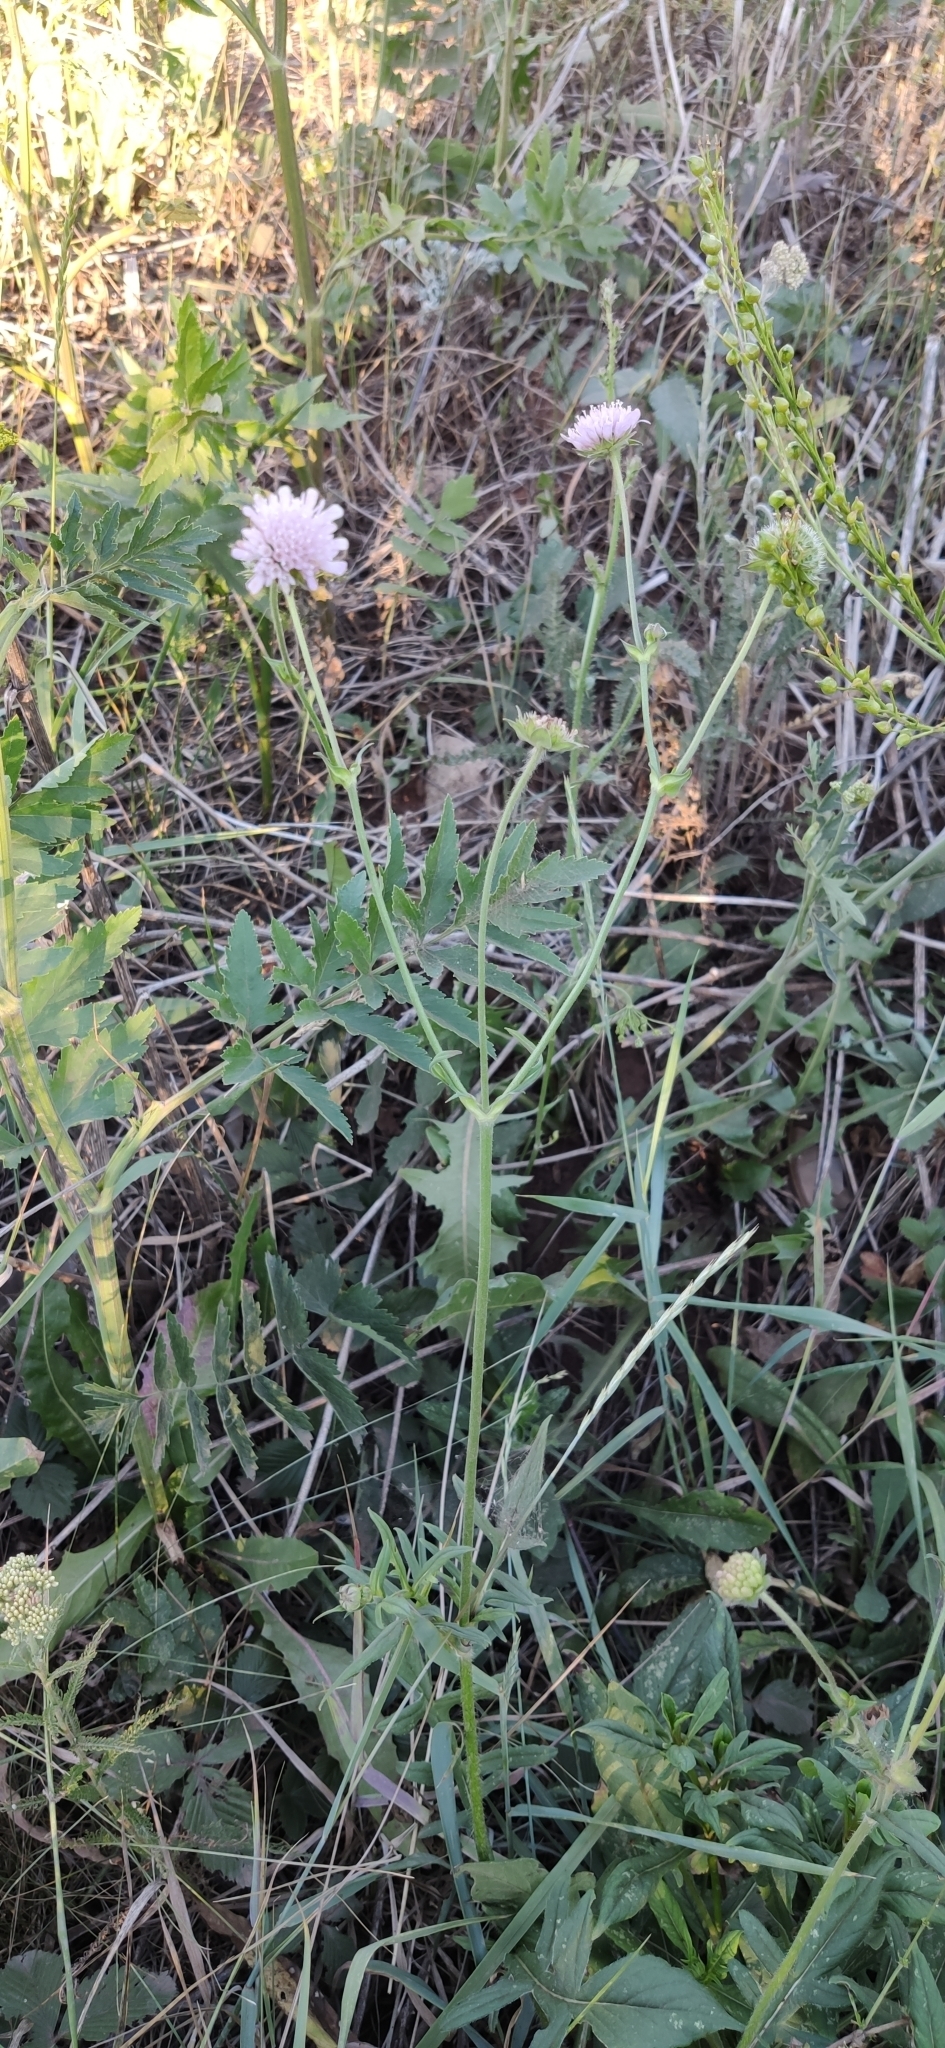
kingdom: Plantae
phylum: Tracheophyta
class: Magnoliopsida
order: Dipsacales
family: Caprifoliaceae
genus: Knautia
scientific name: Knautia arvensis
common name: Field scabiosa
